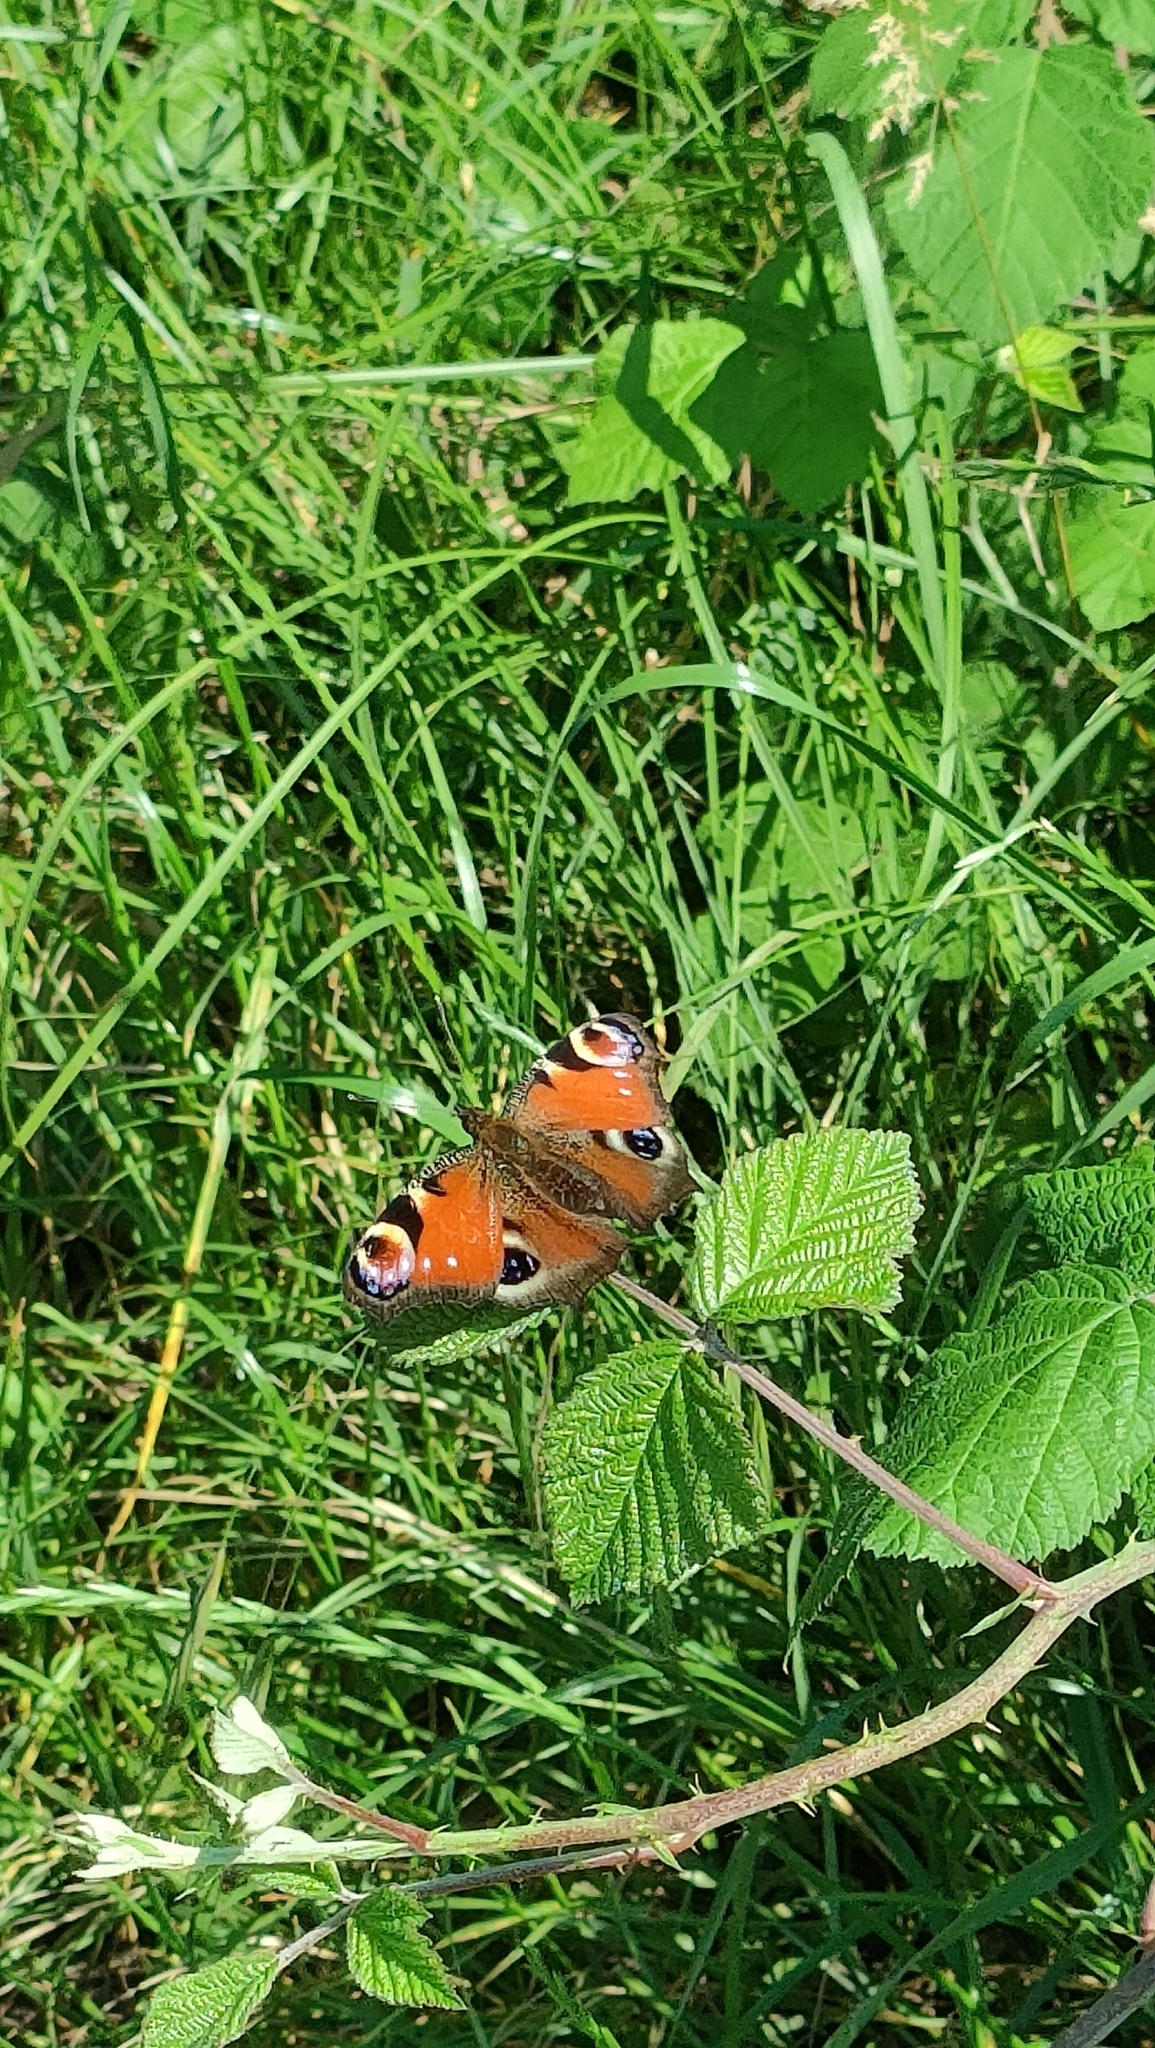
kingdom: Animalia
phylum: Arthropoda
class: Insecta
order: Lepidoptera
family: Nymphalidae
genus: Aglais
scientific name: Aglais io
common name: Peacock
